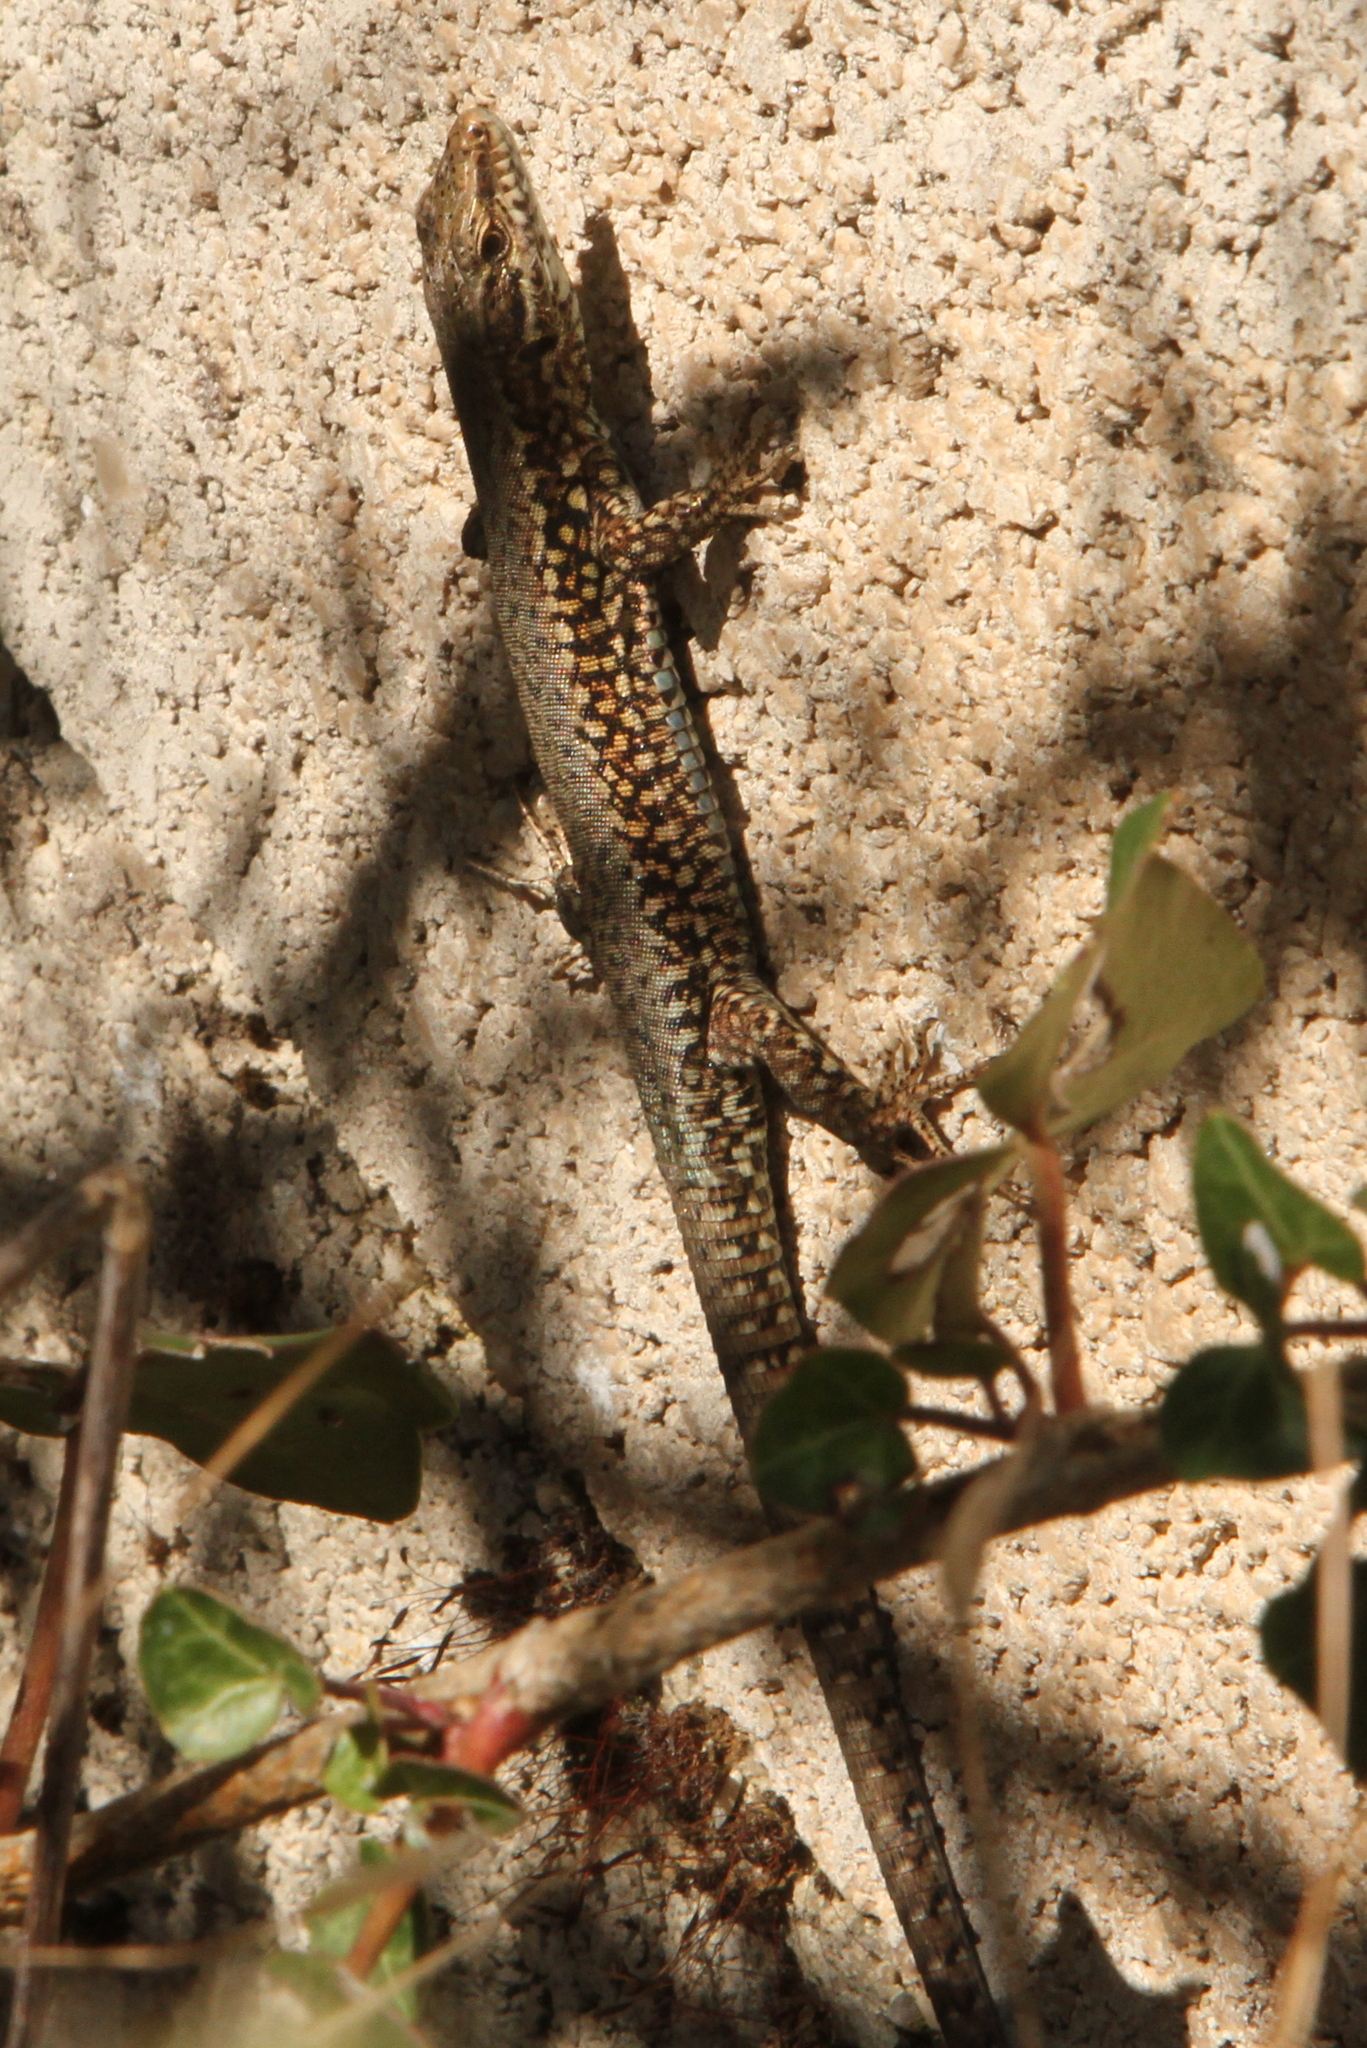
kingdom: Animalia
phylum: Chordata
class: Squamata
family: Lacertidae
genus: Podarcis
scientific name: Podarcis muralis
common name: Common wall lizard
